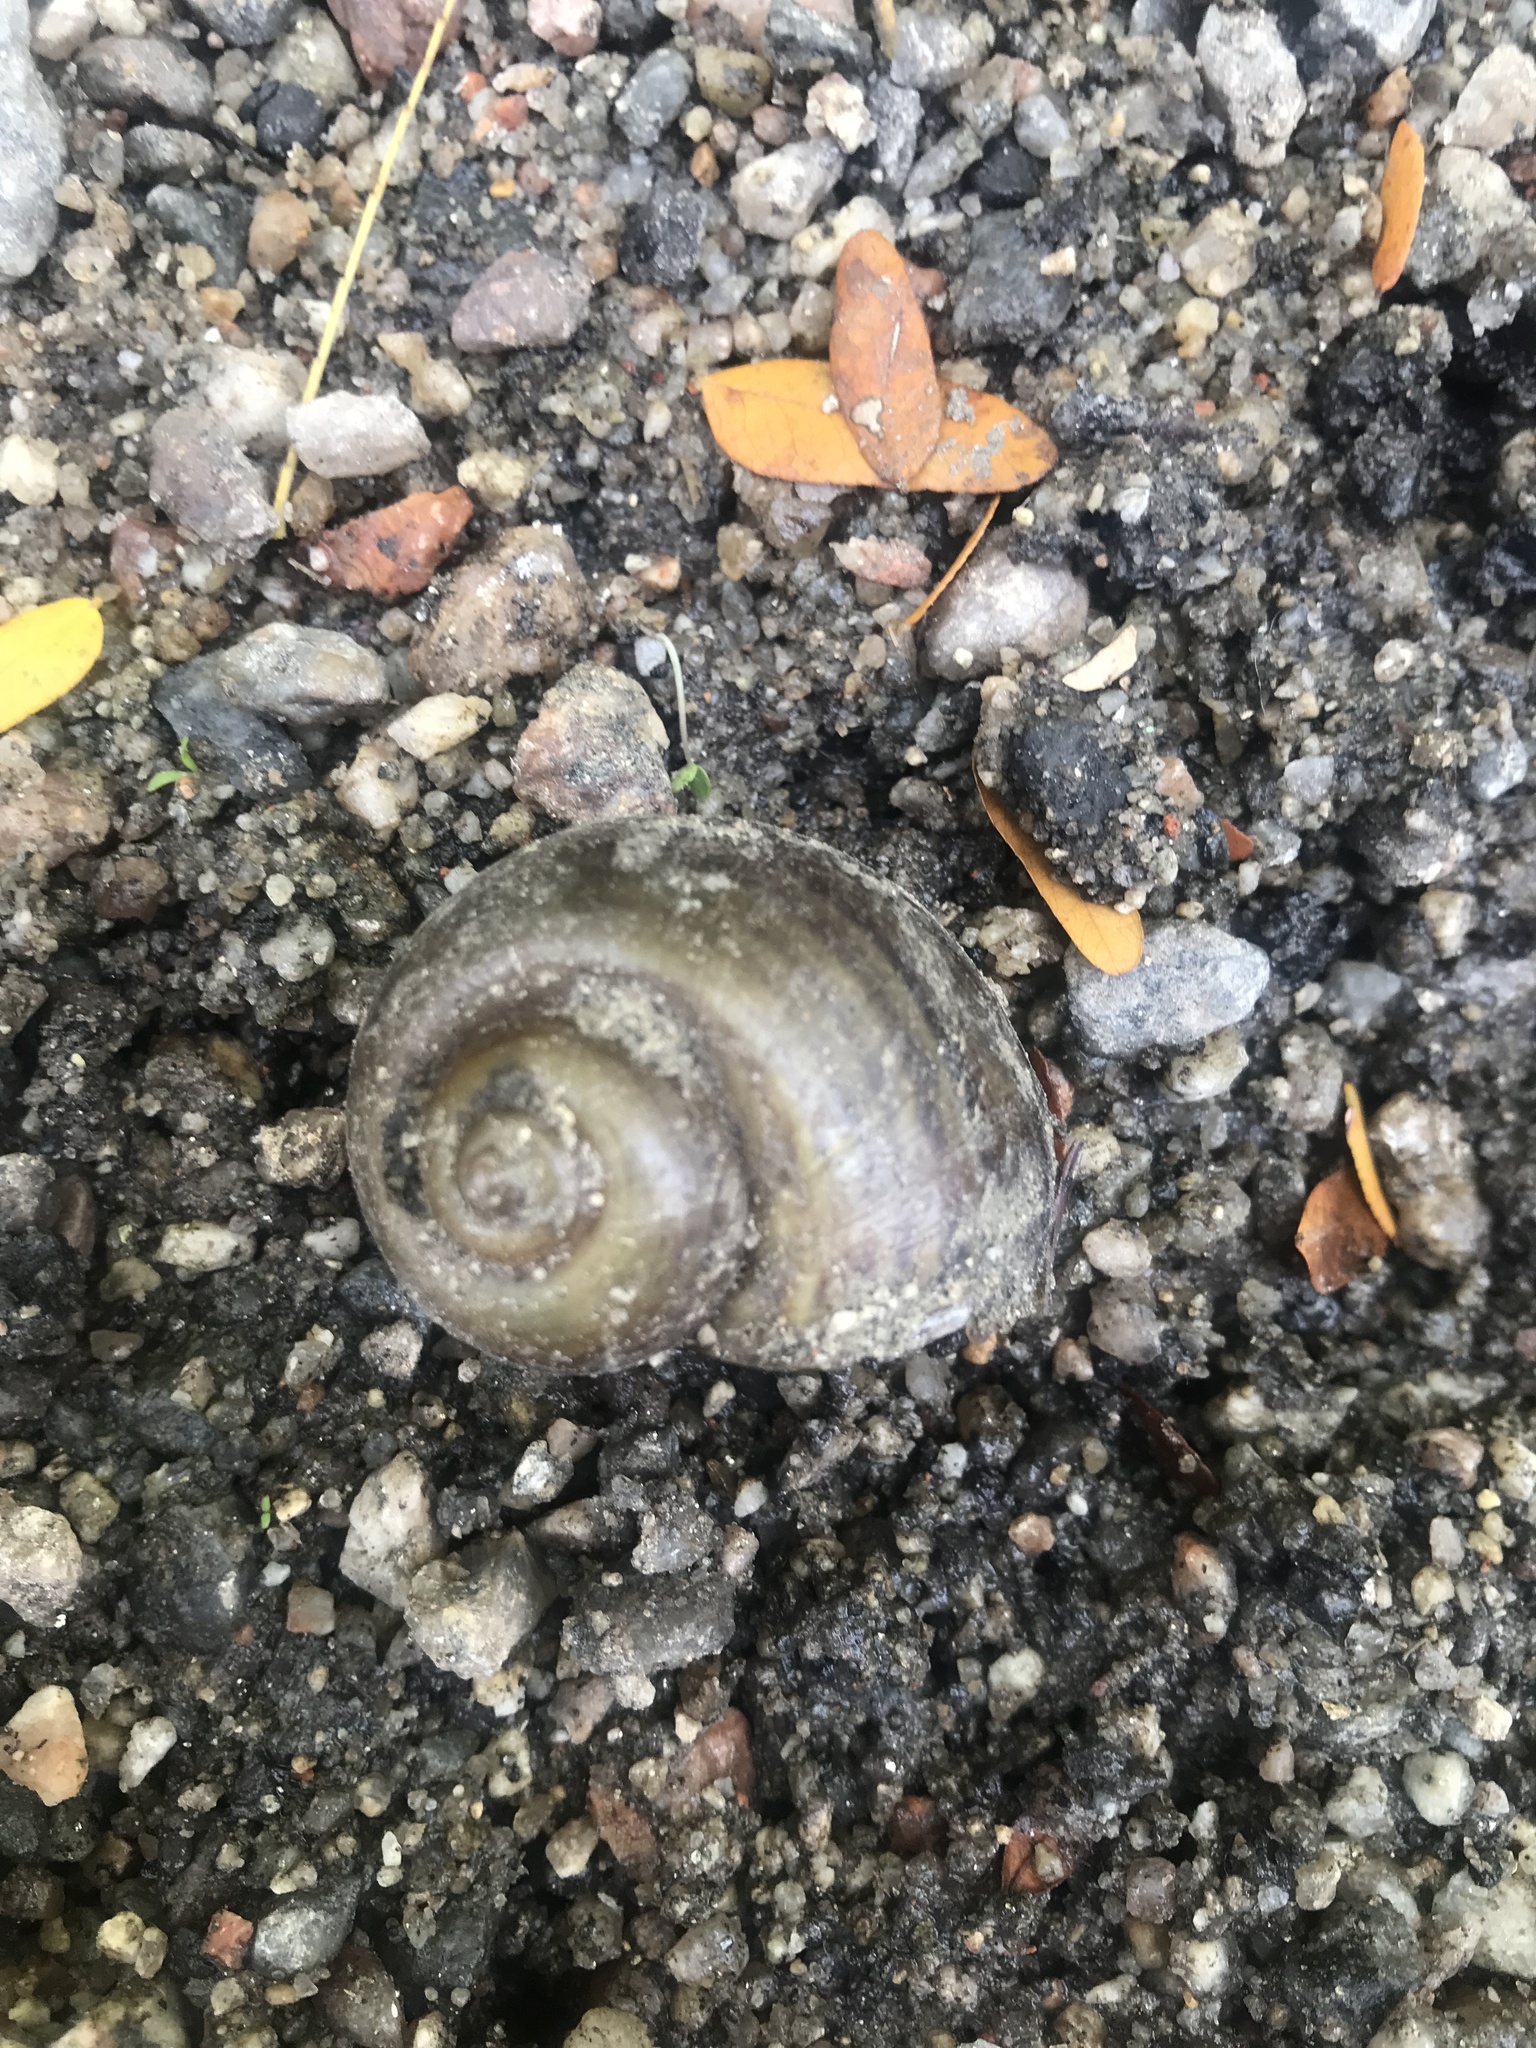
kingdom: Animalia
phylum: Mollusca
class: Gastropoda
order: Architaenioglossa
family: Ampullariidae
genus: Pomacea
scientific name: Pomacea canaliculata
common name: Channeled applesnail
